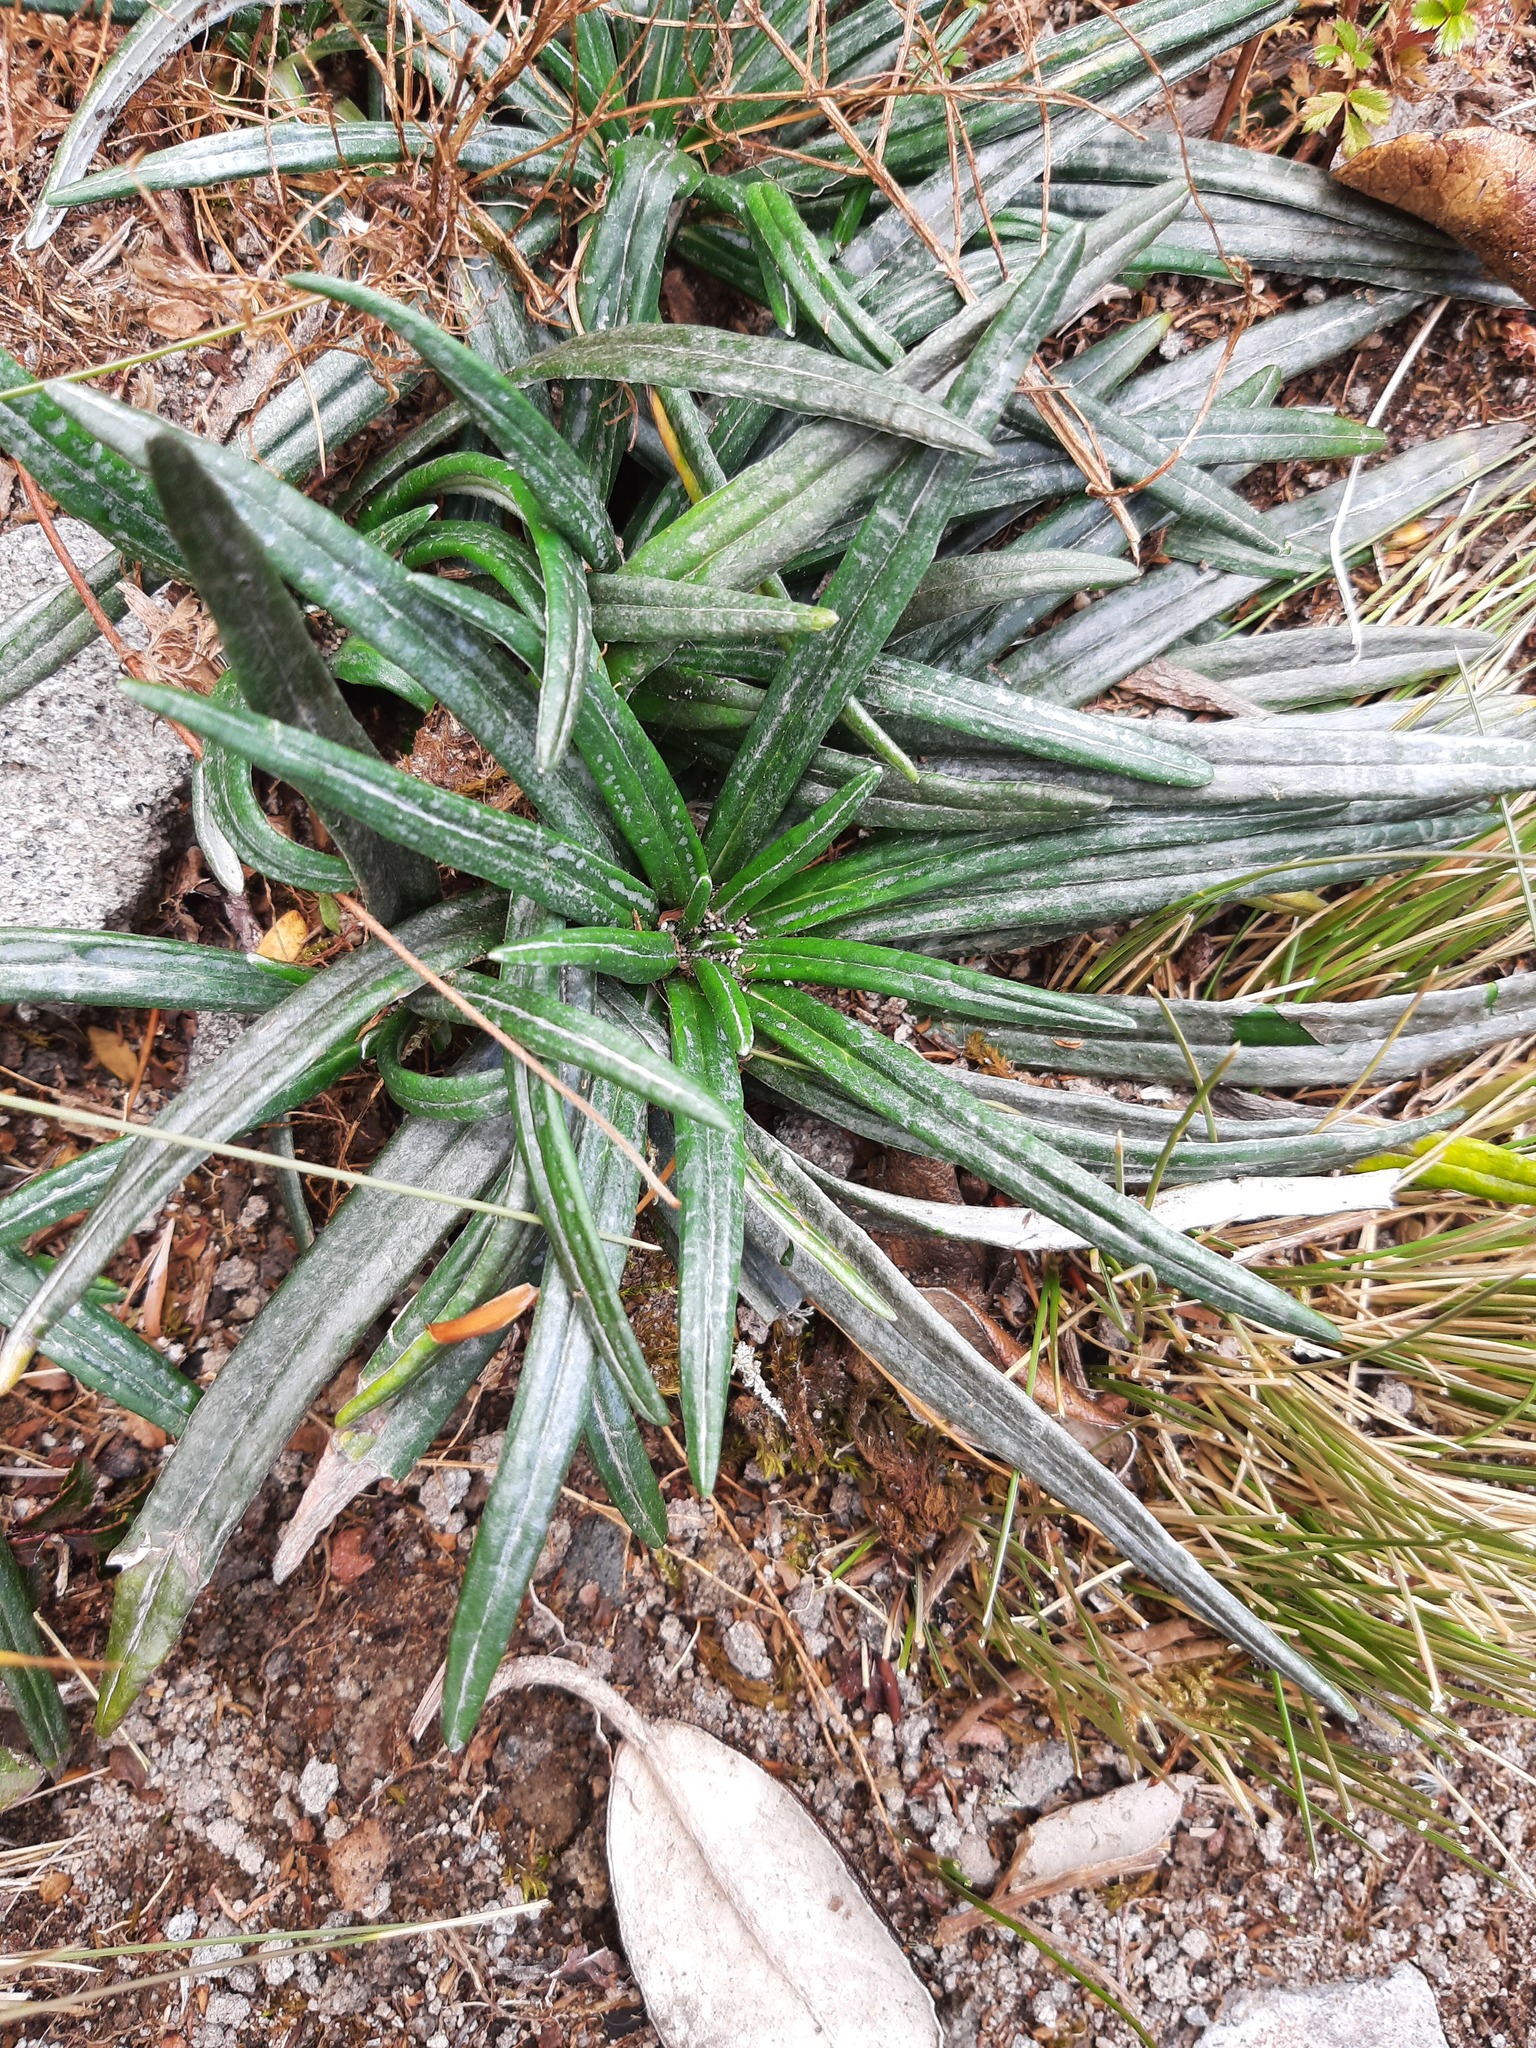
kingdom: Plantae
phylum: Tracheophyta
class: Magnoliopsida
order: Asterales
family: Asteraceae
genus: Celmisia
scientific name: Celmisia major
